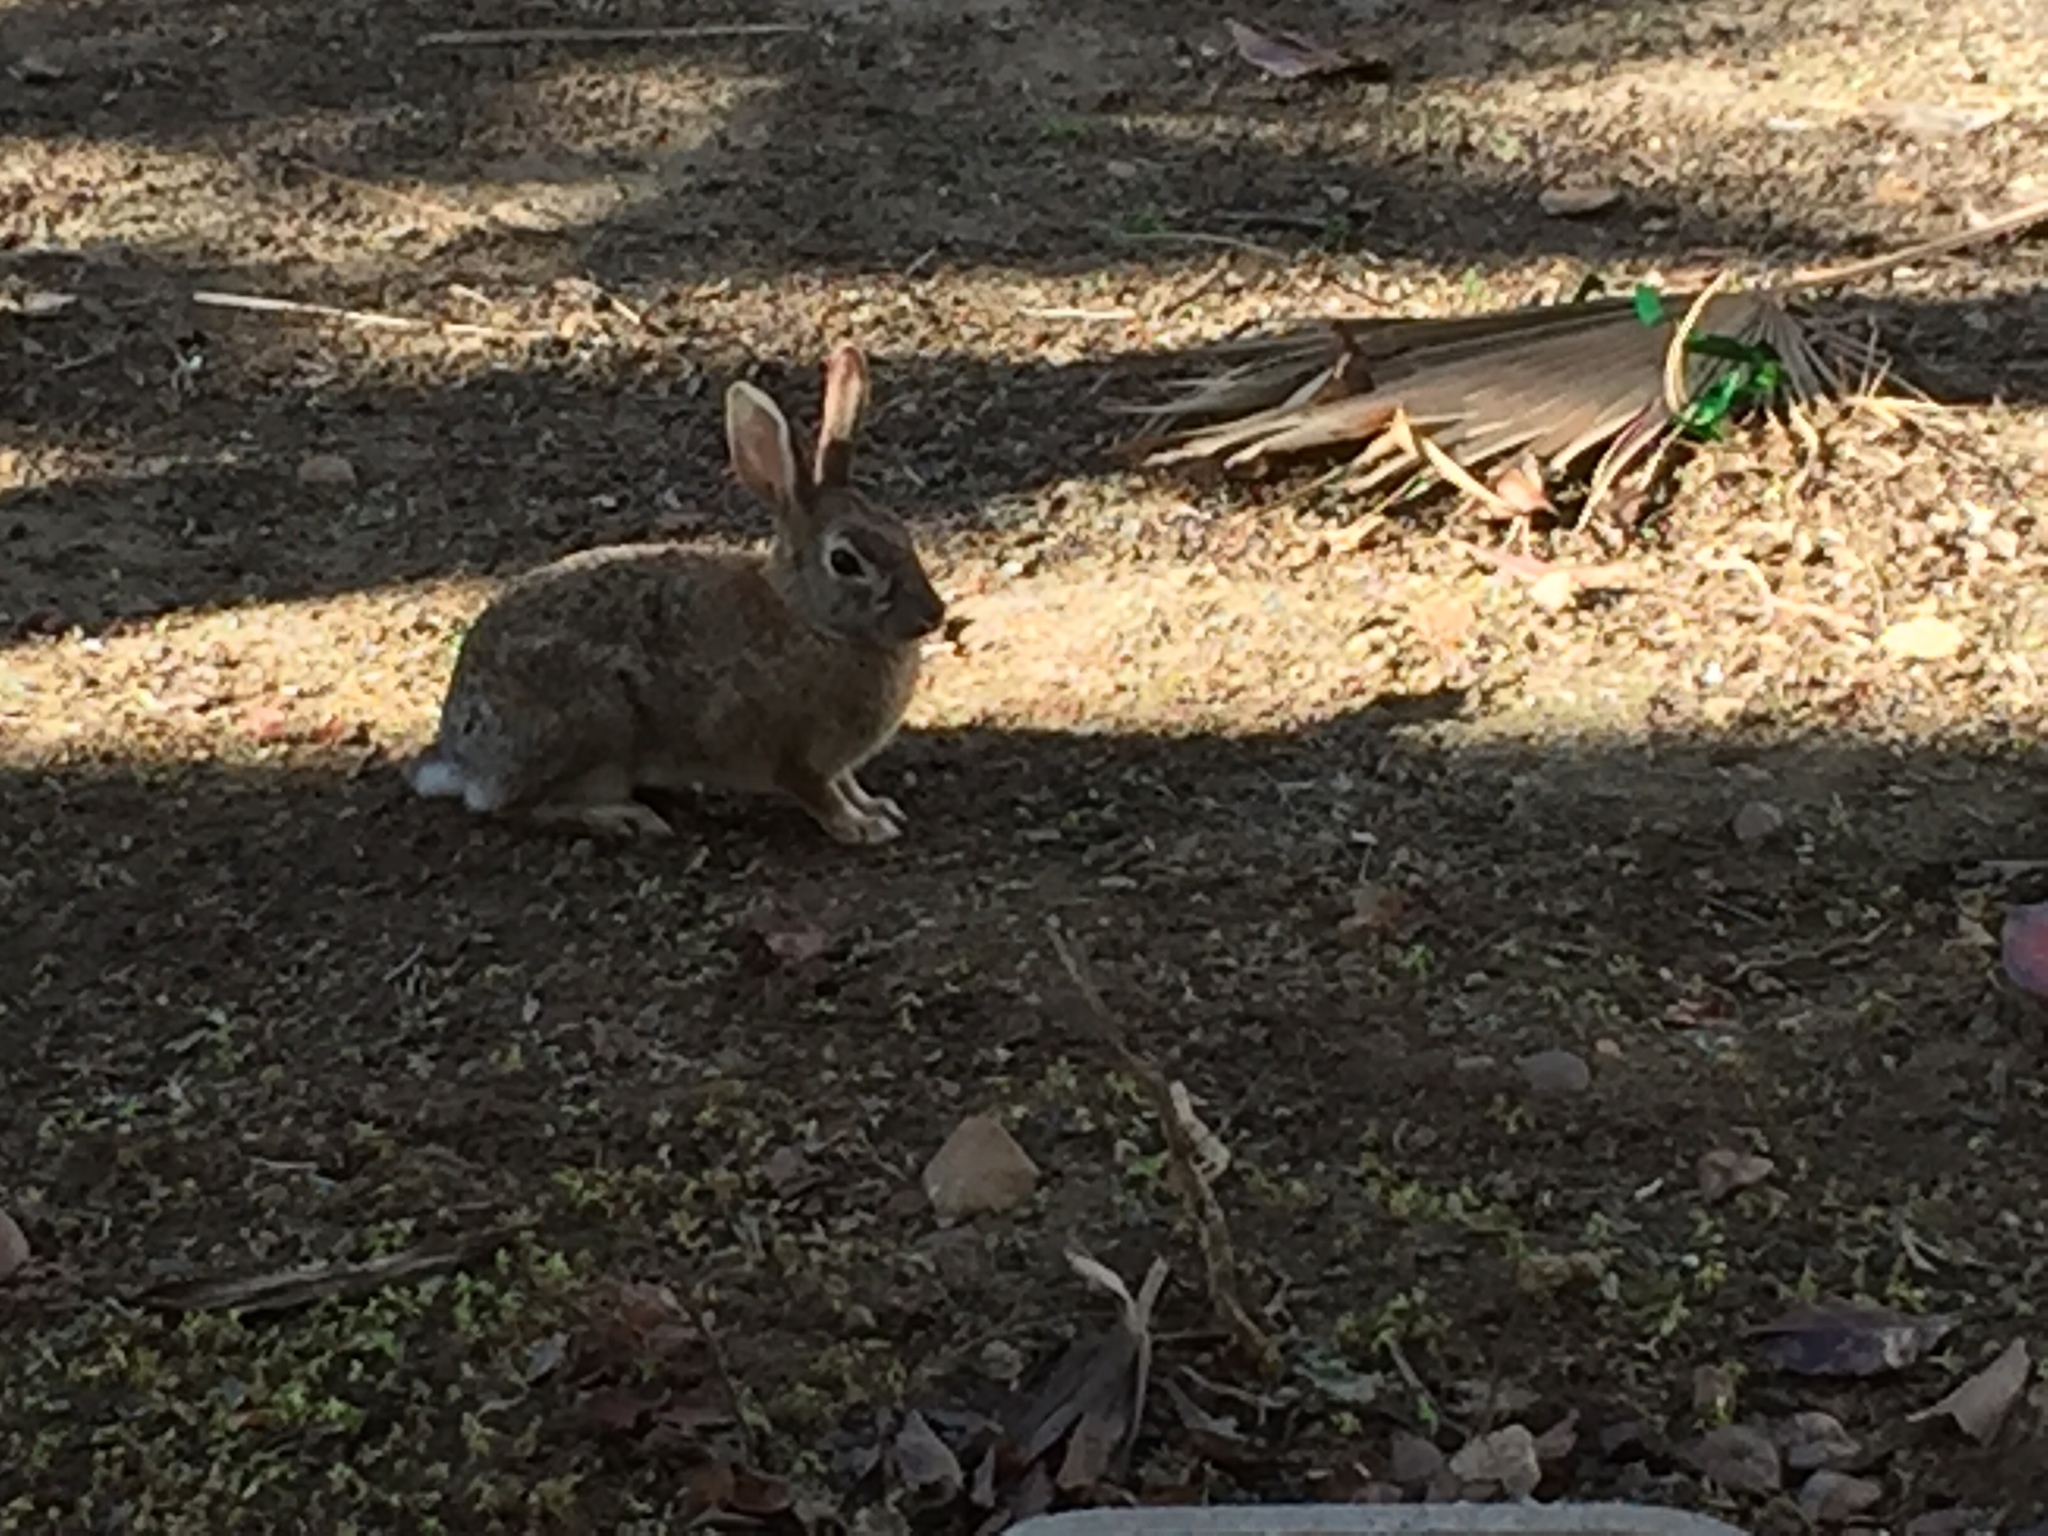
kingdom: Animalia
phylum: Chordata
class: Mammalia
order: Lagomorpha
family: Leporidae
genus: Sylvilagus
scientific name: Sylvilagus audubonii
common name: Desert cottontail
